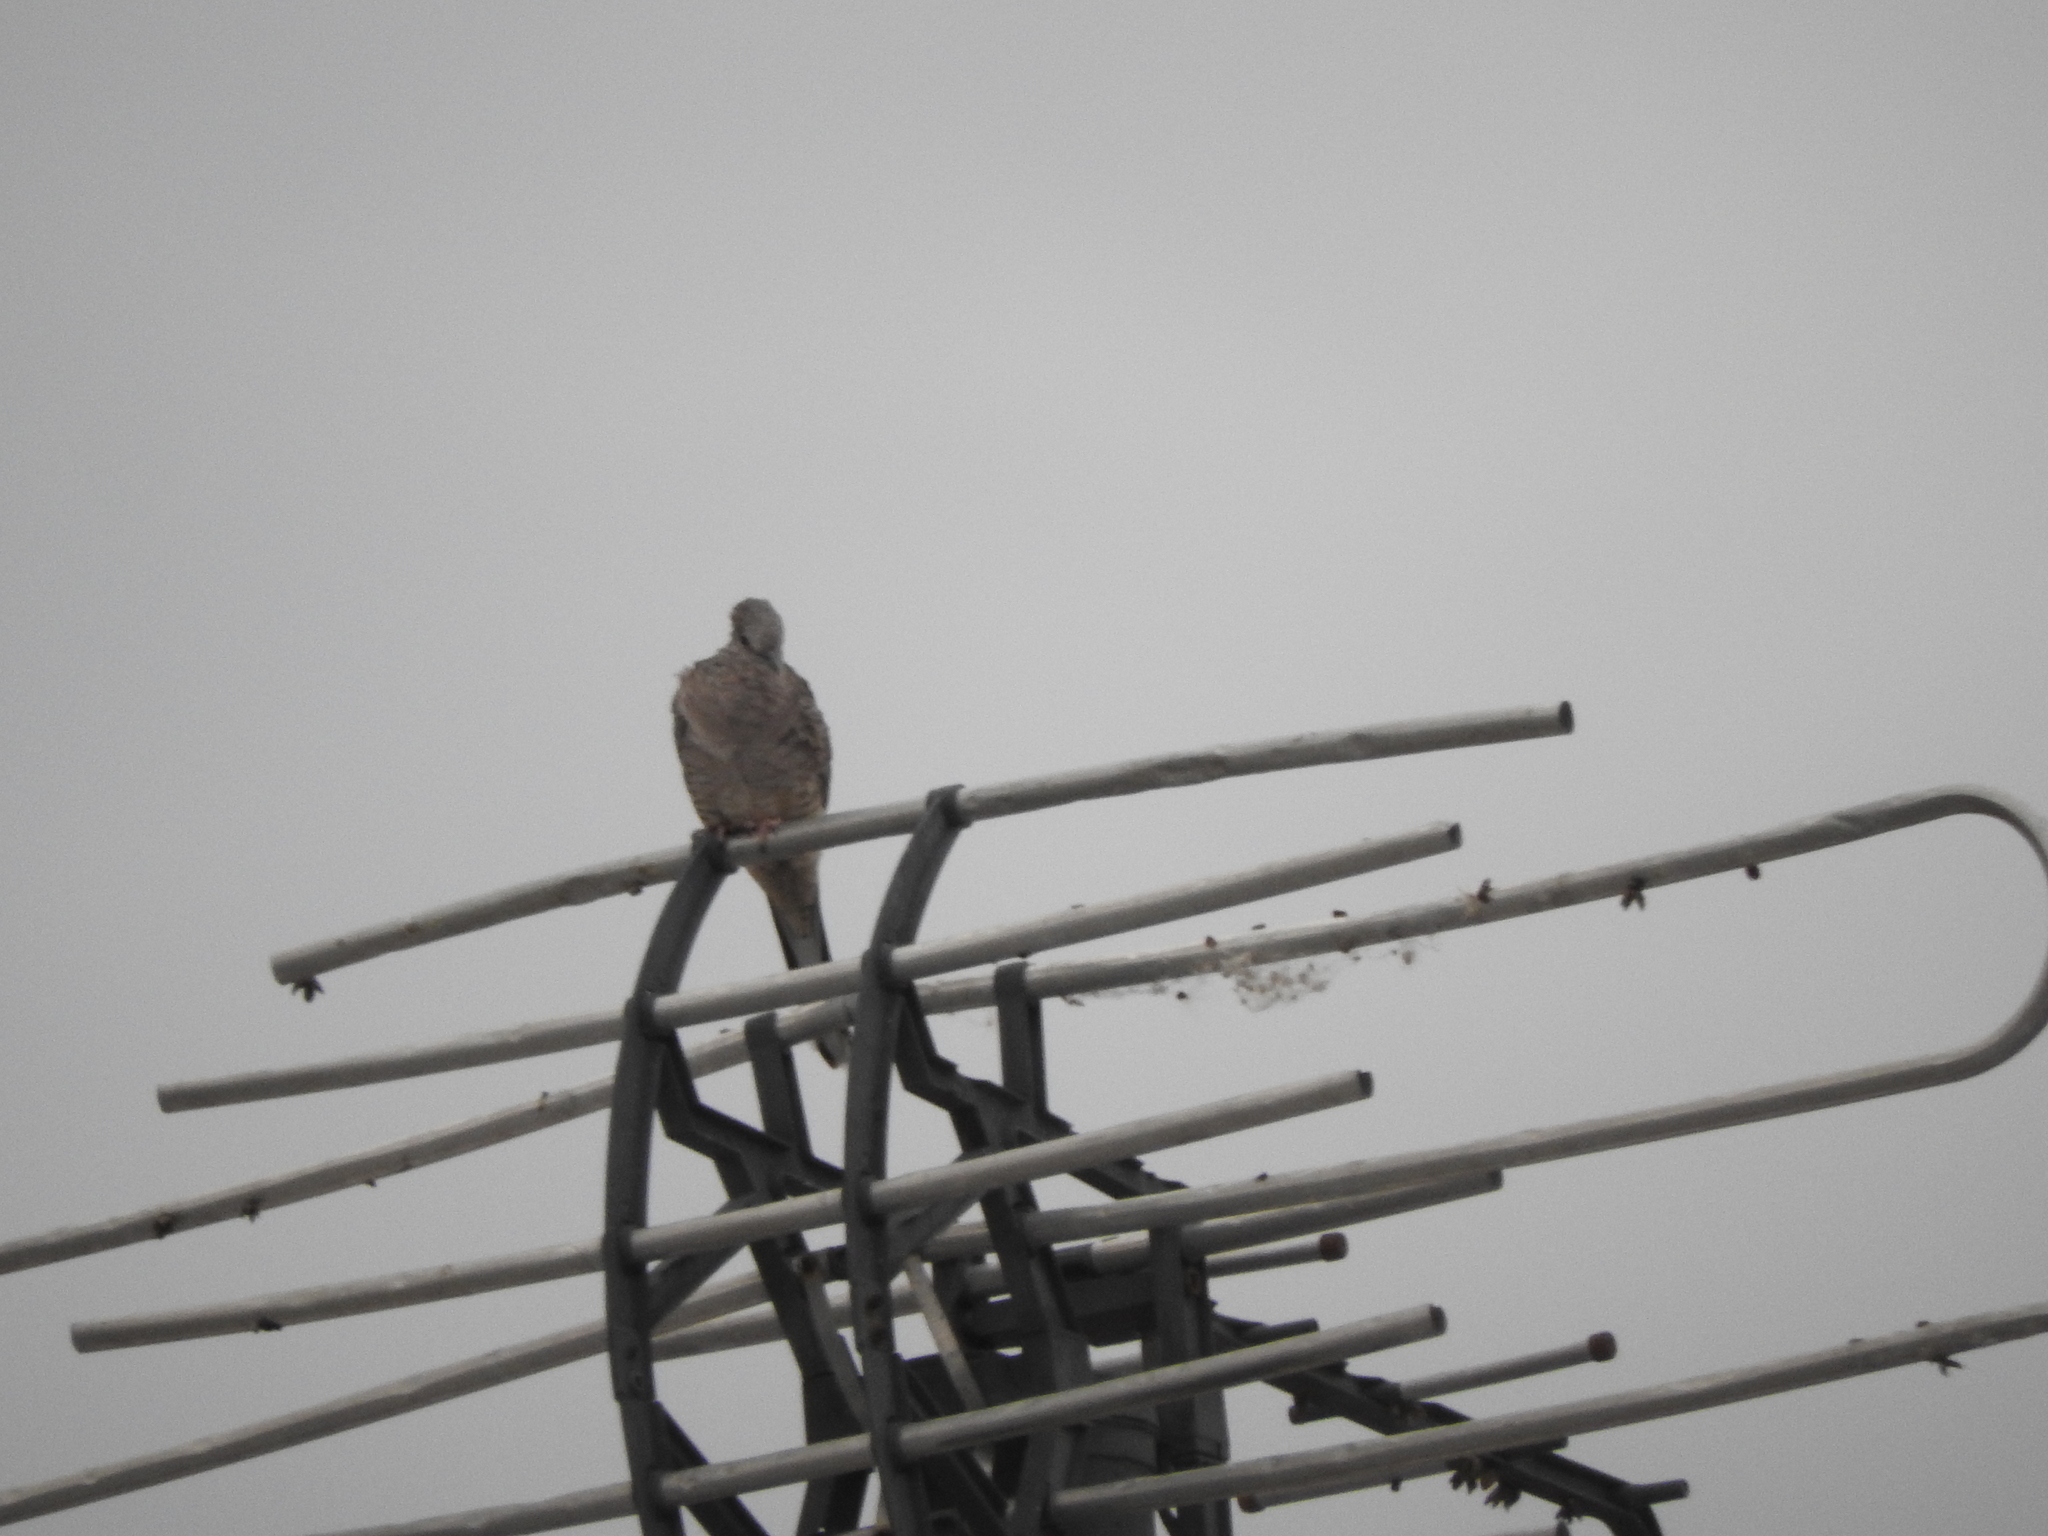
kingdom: Animalia
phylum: Chordata
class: Aves
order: Columbiformes
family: Columbidae
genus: Columbina
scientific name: Columbina inca
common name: Inca dove
